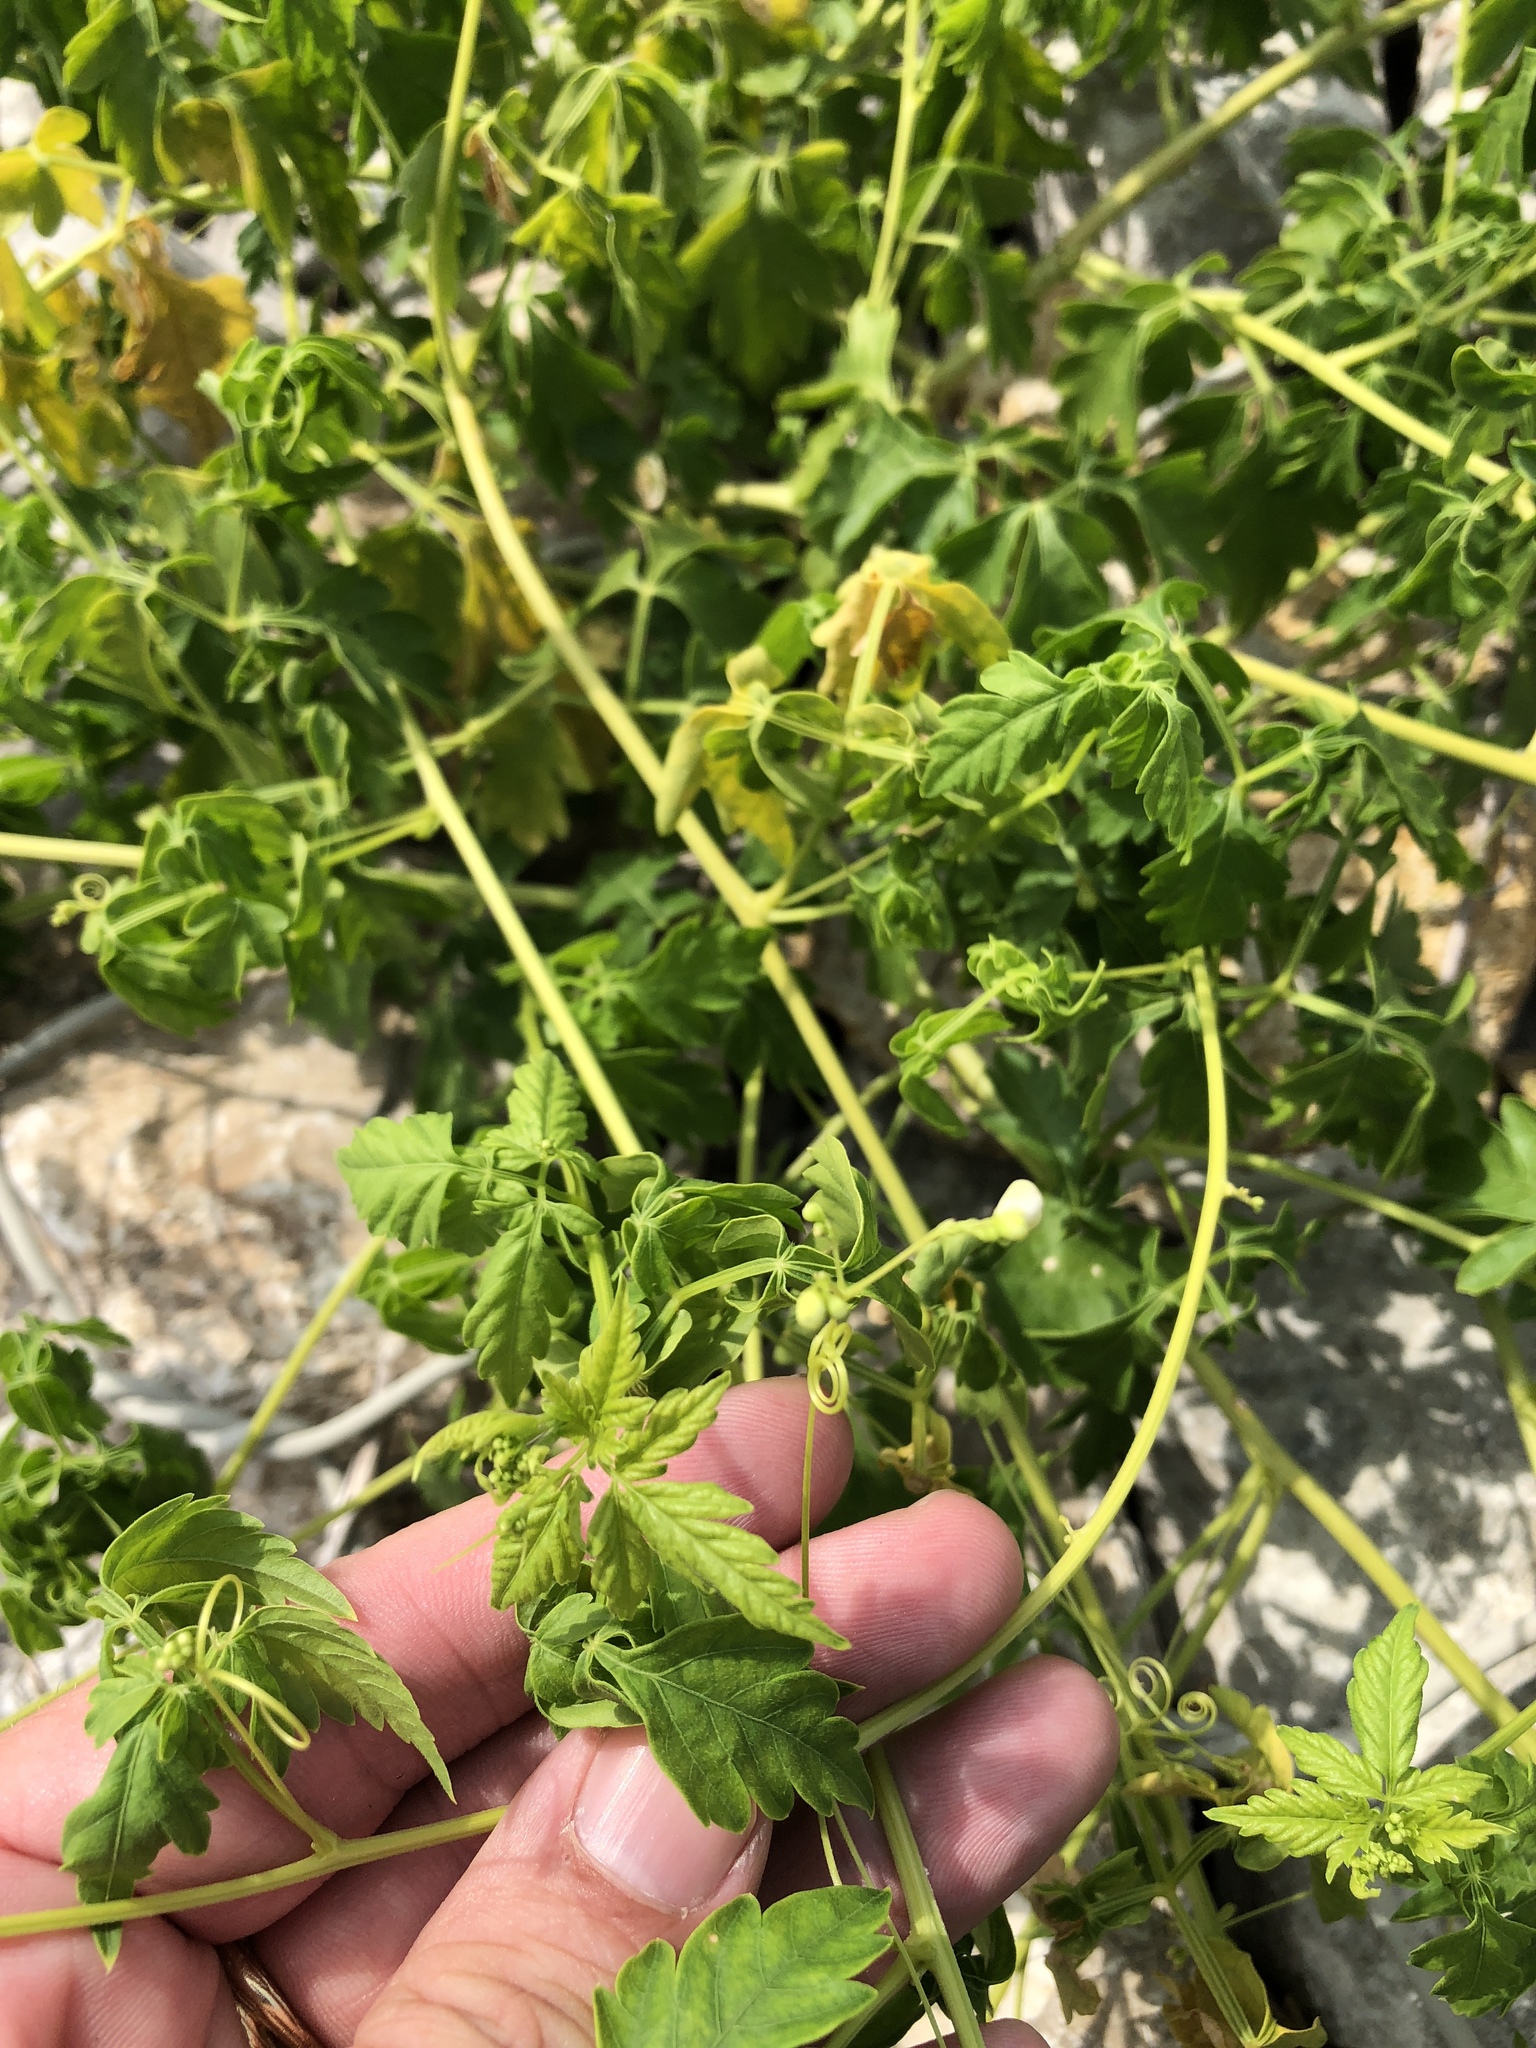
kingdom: Plantae
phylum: Tracheophyta
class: Magnoliopsida
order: Sapindales
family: Sapindaceae
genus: Cardiospermum
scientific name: Cardiospermum halicacabum
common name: Balloon vine
